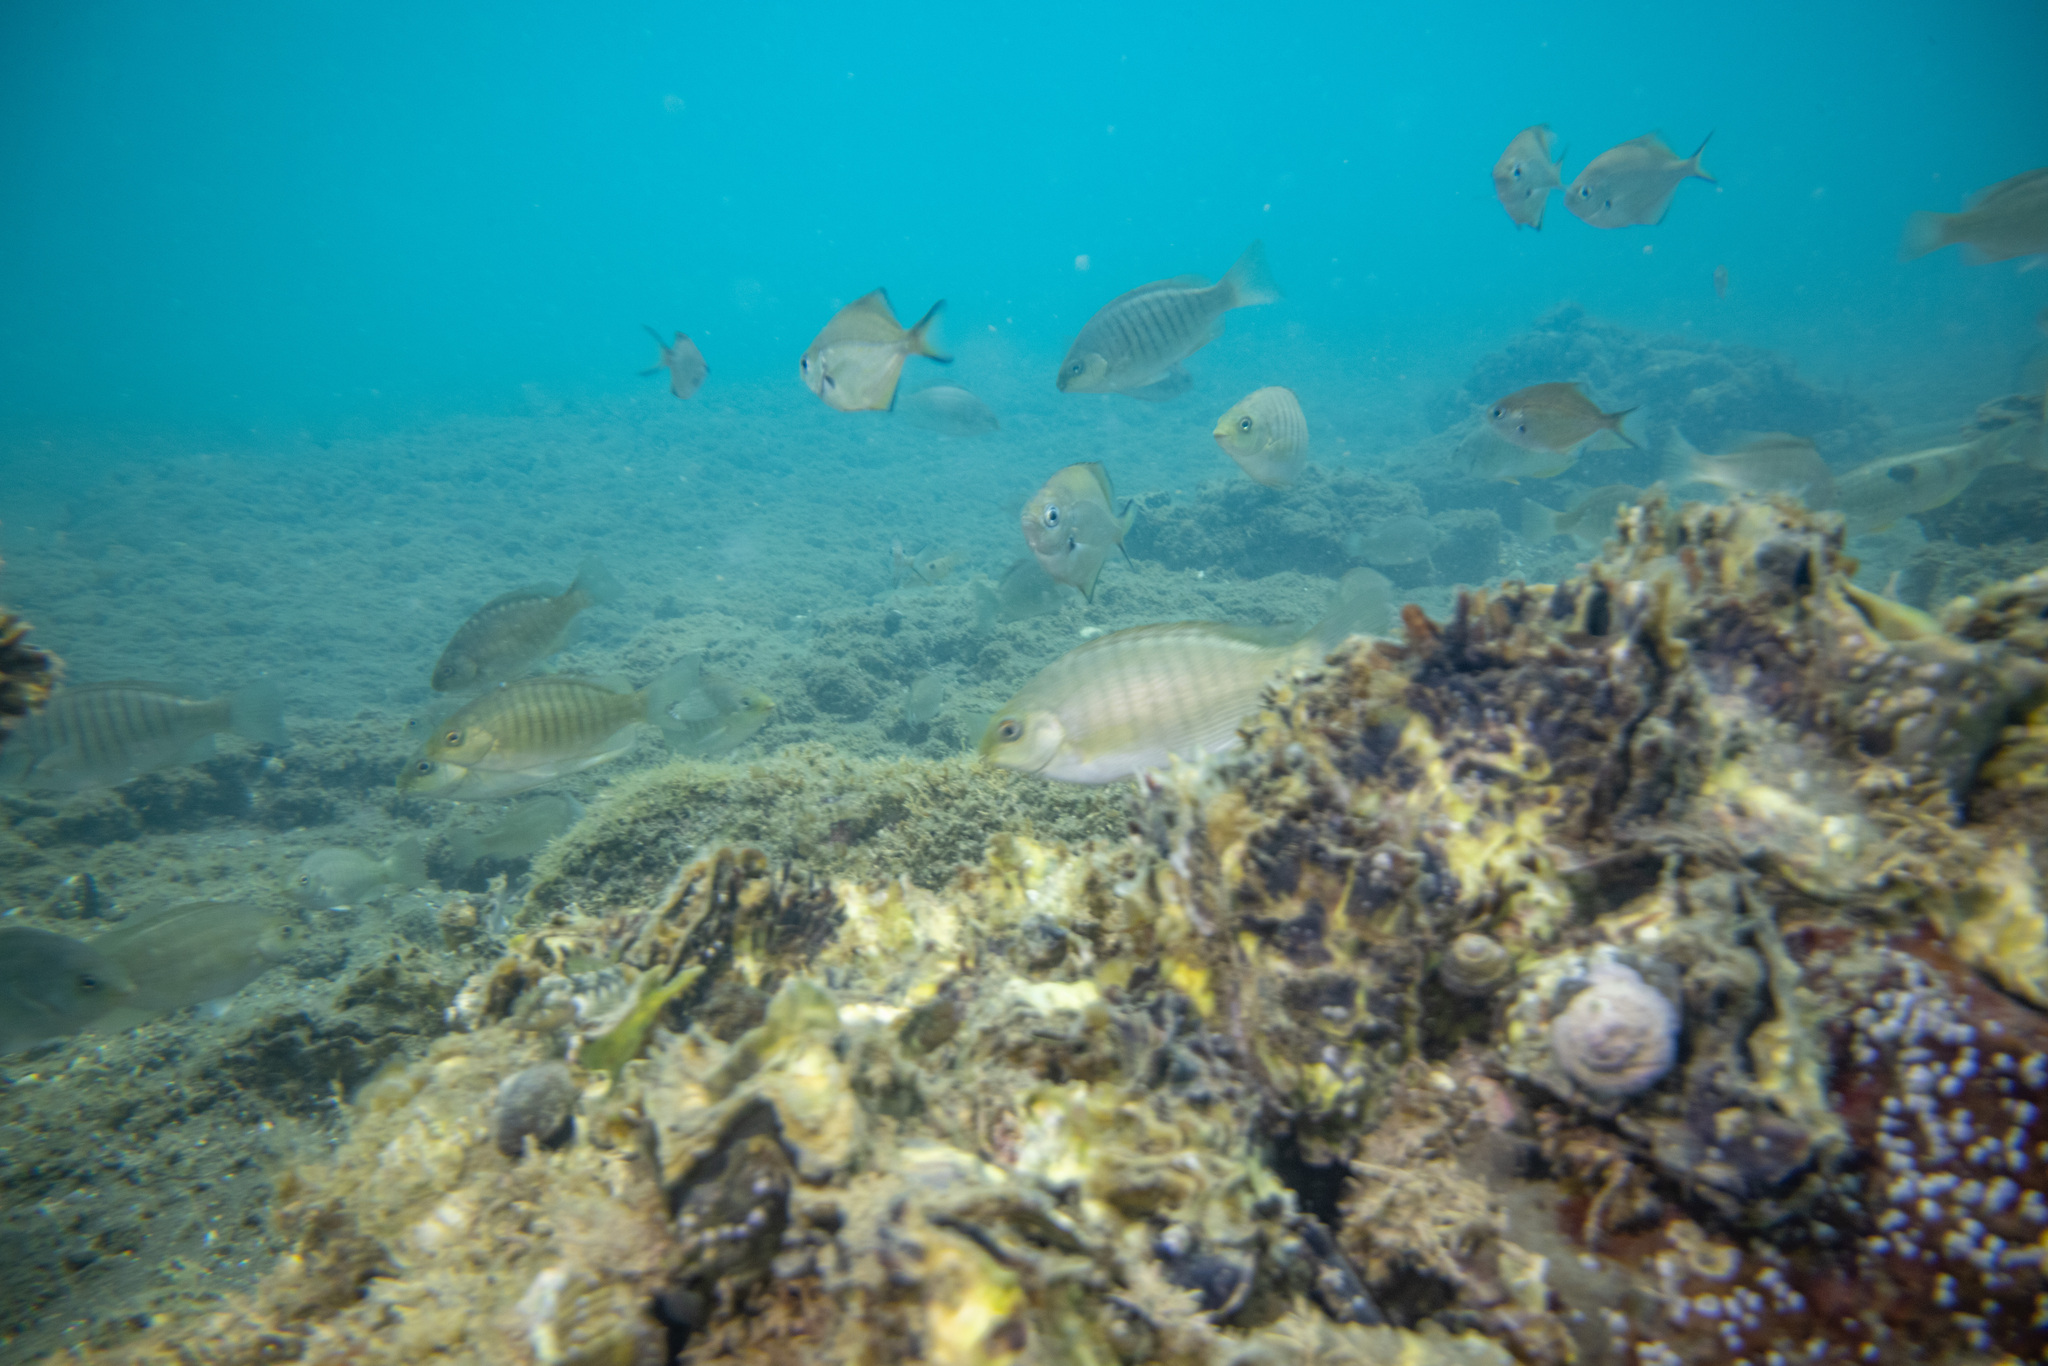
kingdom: Animalia
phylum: Chordata
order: Perciformes
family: Kyphosidae
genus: Scorpis
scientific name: Scorpis lineolata
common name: Sweep
